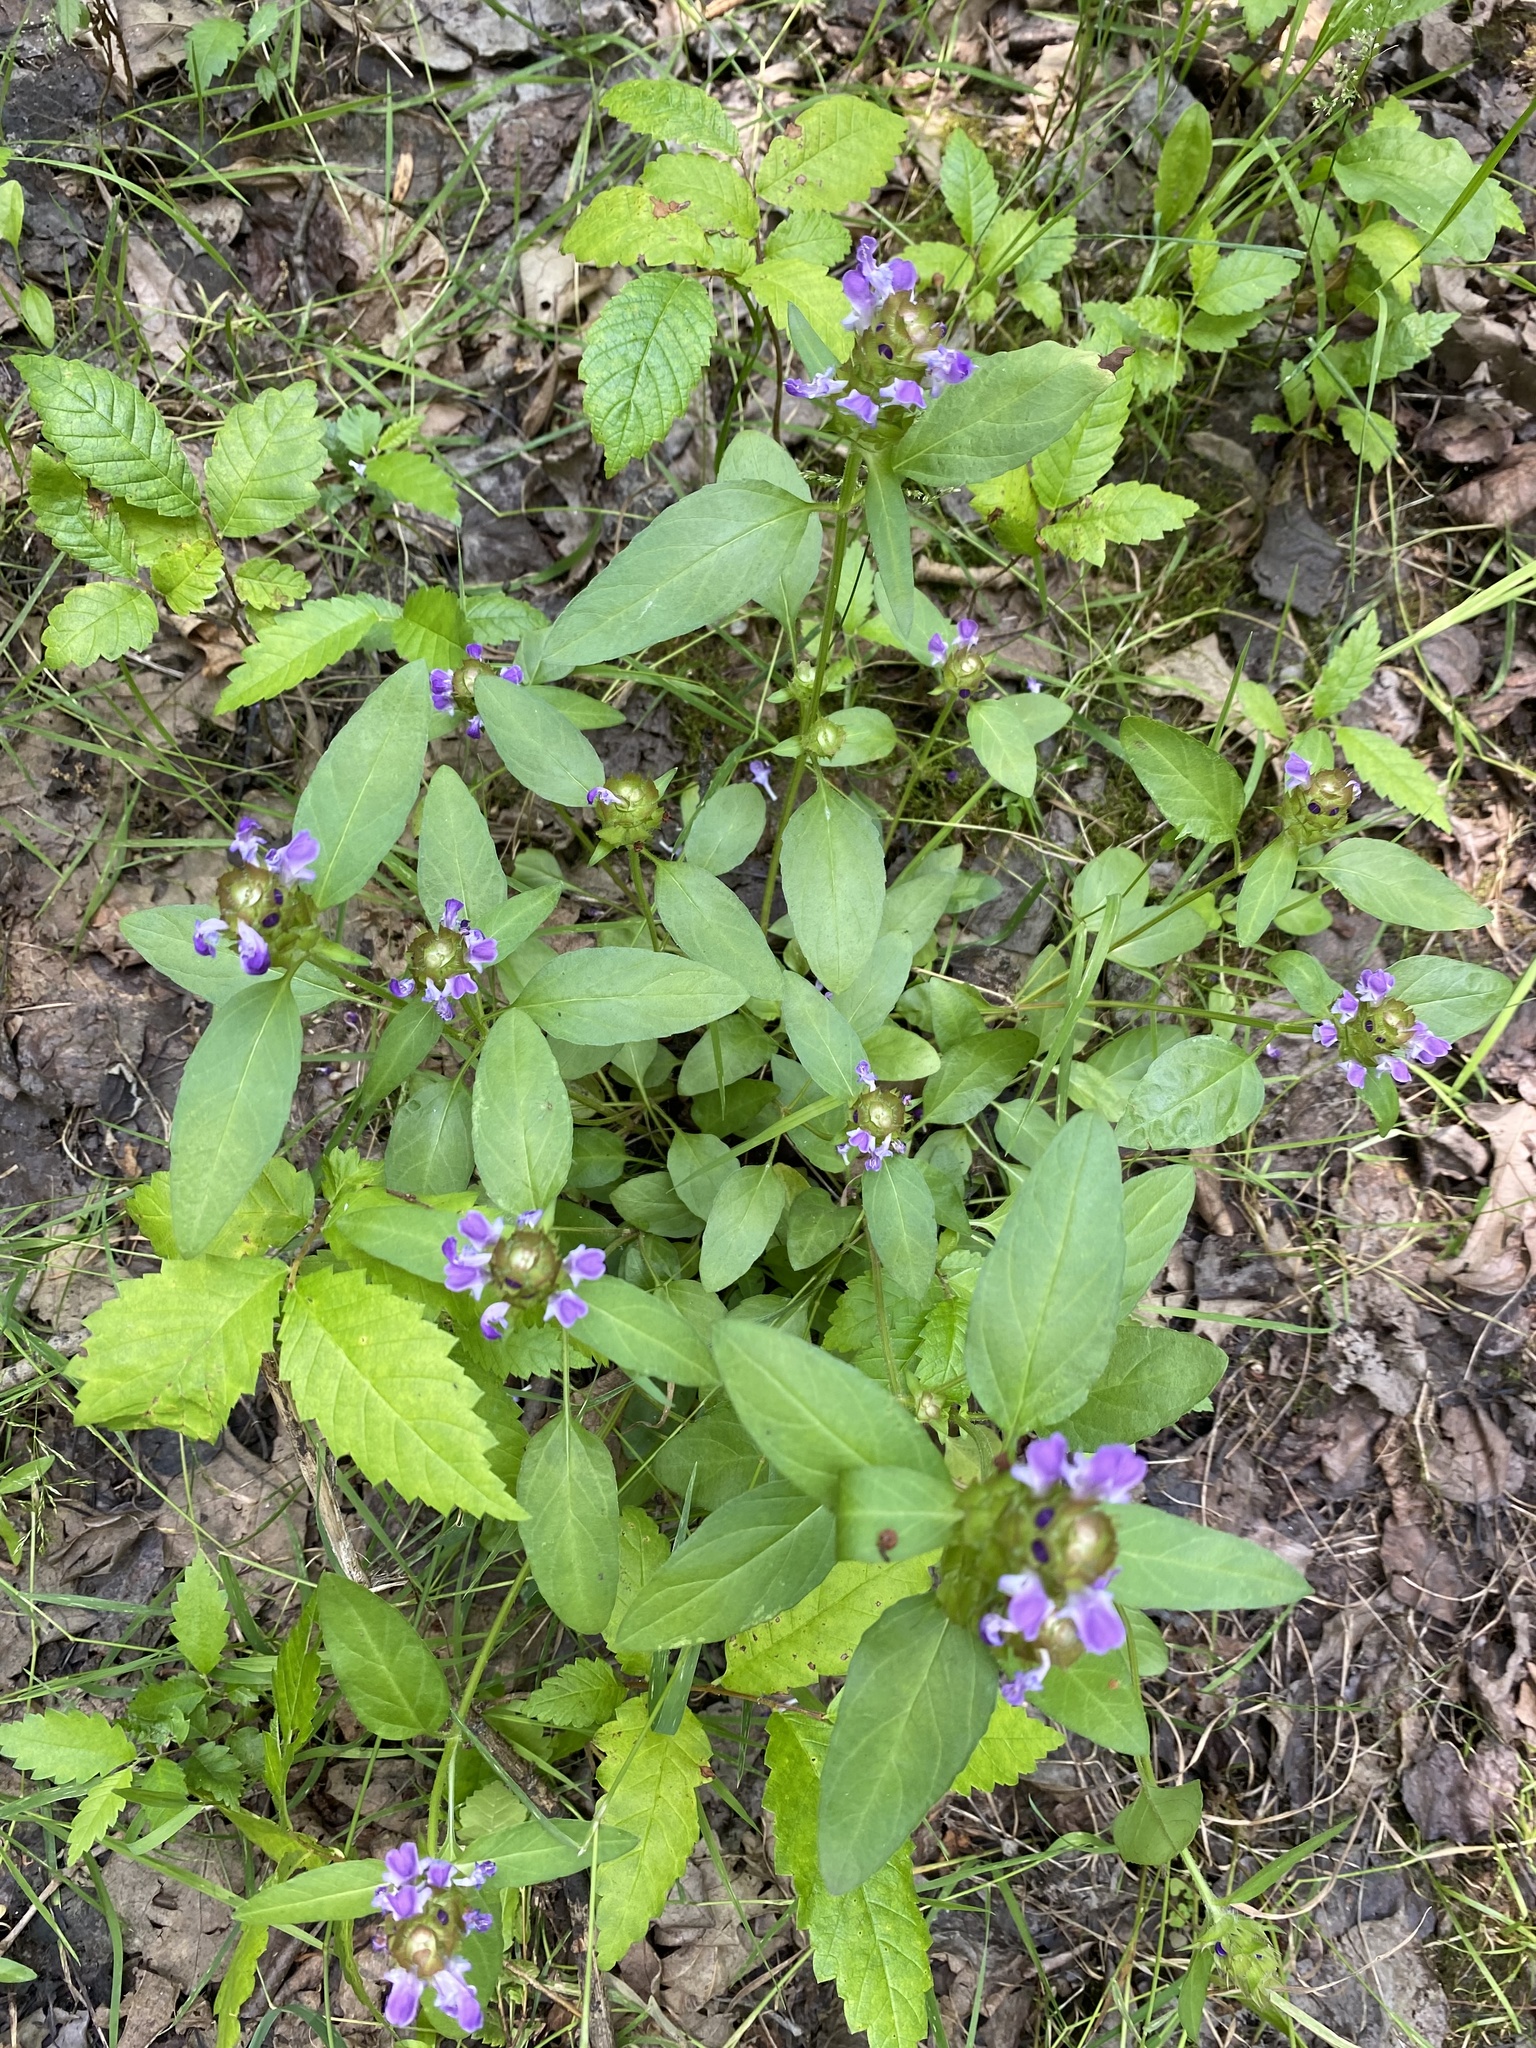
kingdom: Plantae
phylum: Tracheophyta
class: Magnoliopsida
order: Lamiales
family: Lamiaceae
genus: Prunella
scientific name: Prunella vulgaris
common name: Heal-all
